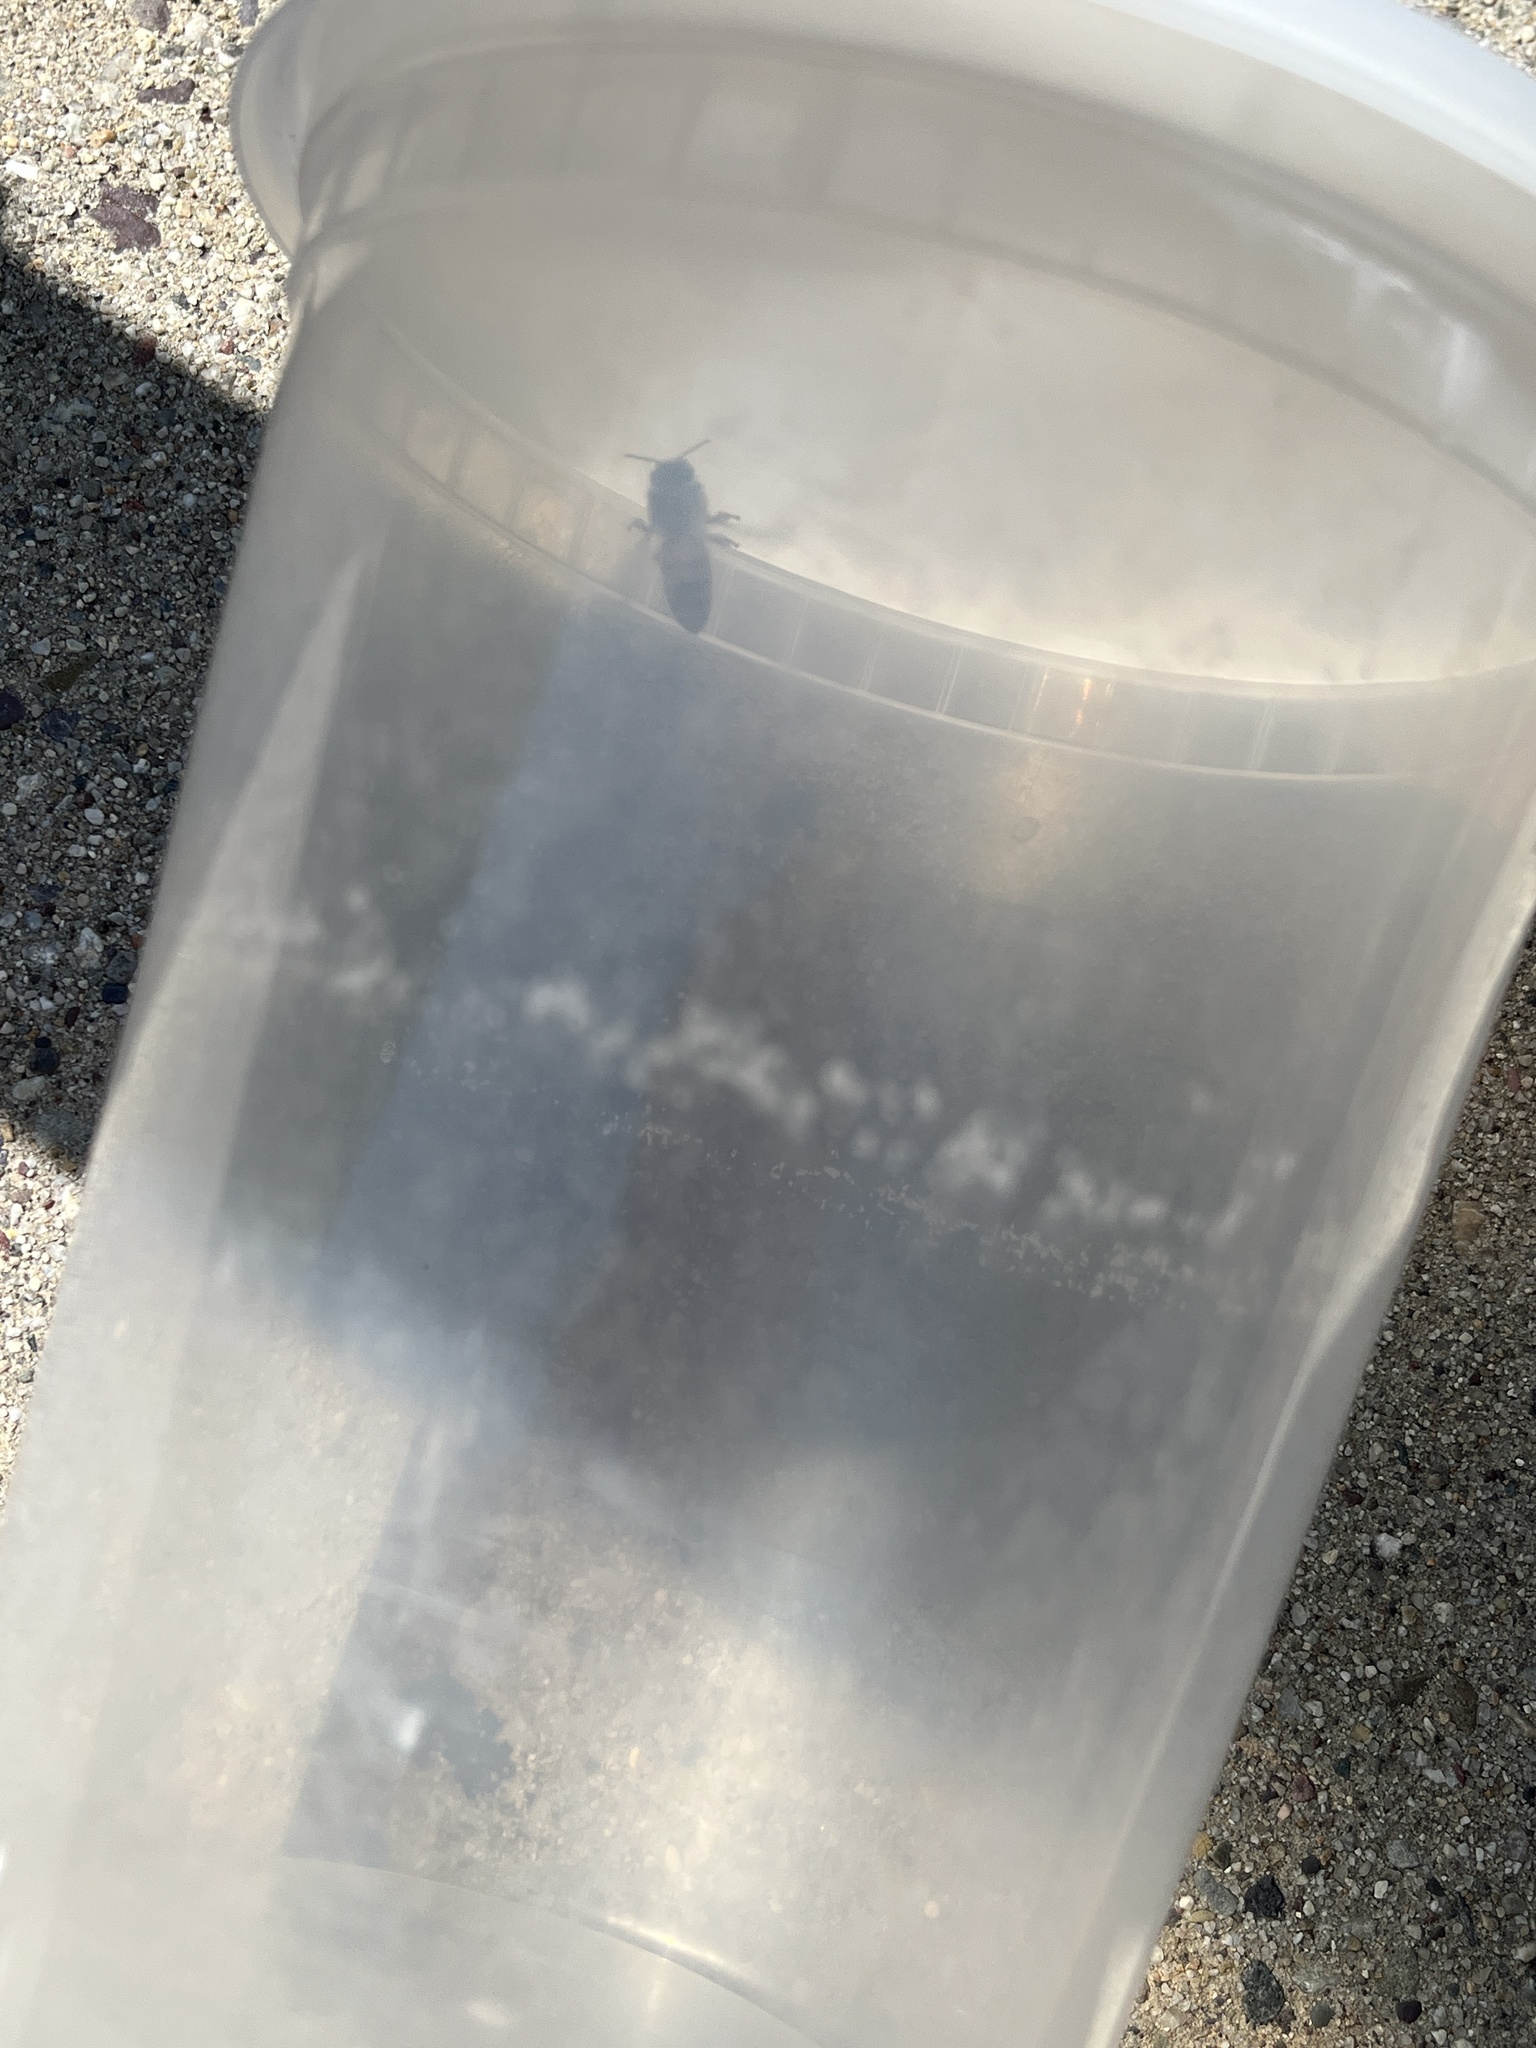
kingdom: Animalia
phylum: Arthropoda
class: Insecta
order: Hymenoptera
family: Apidae
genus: Apis
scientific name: Apis mellifera
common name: Honey bee
